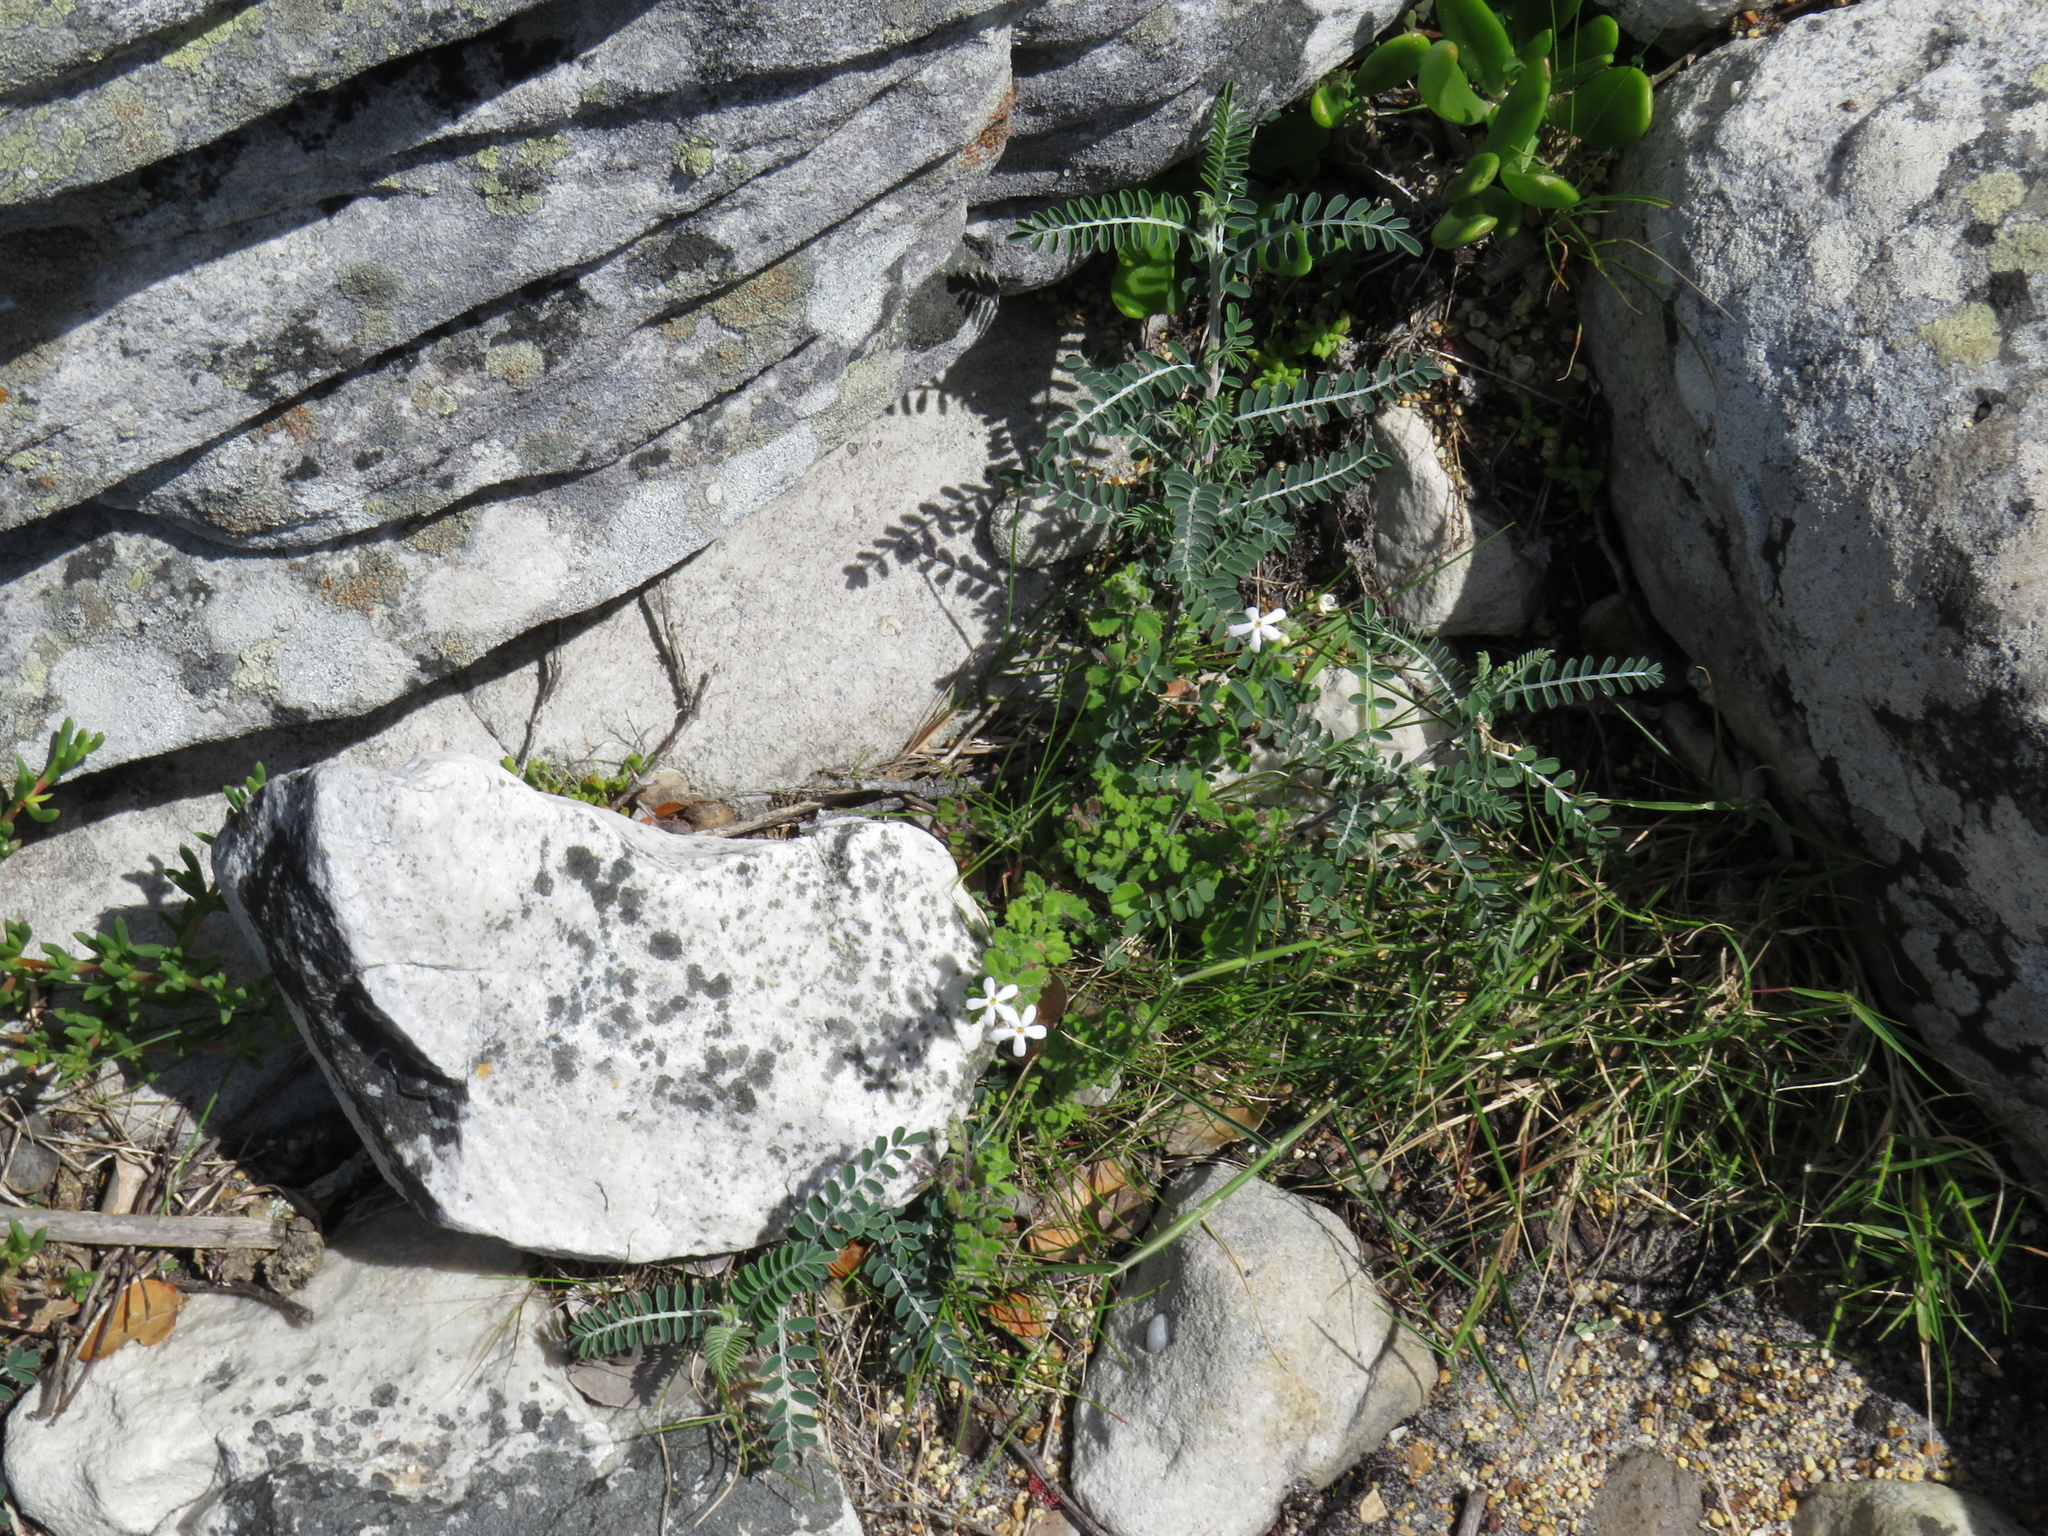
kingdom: Plantae
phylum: Tracheophyta
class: Magnoliopsida
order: Fabales
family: Fabaceae
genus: Lessertia
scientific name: Lessertia frutescens
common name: Balloon-pea
